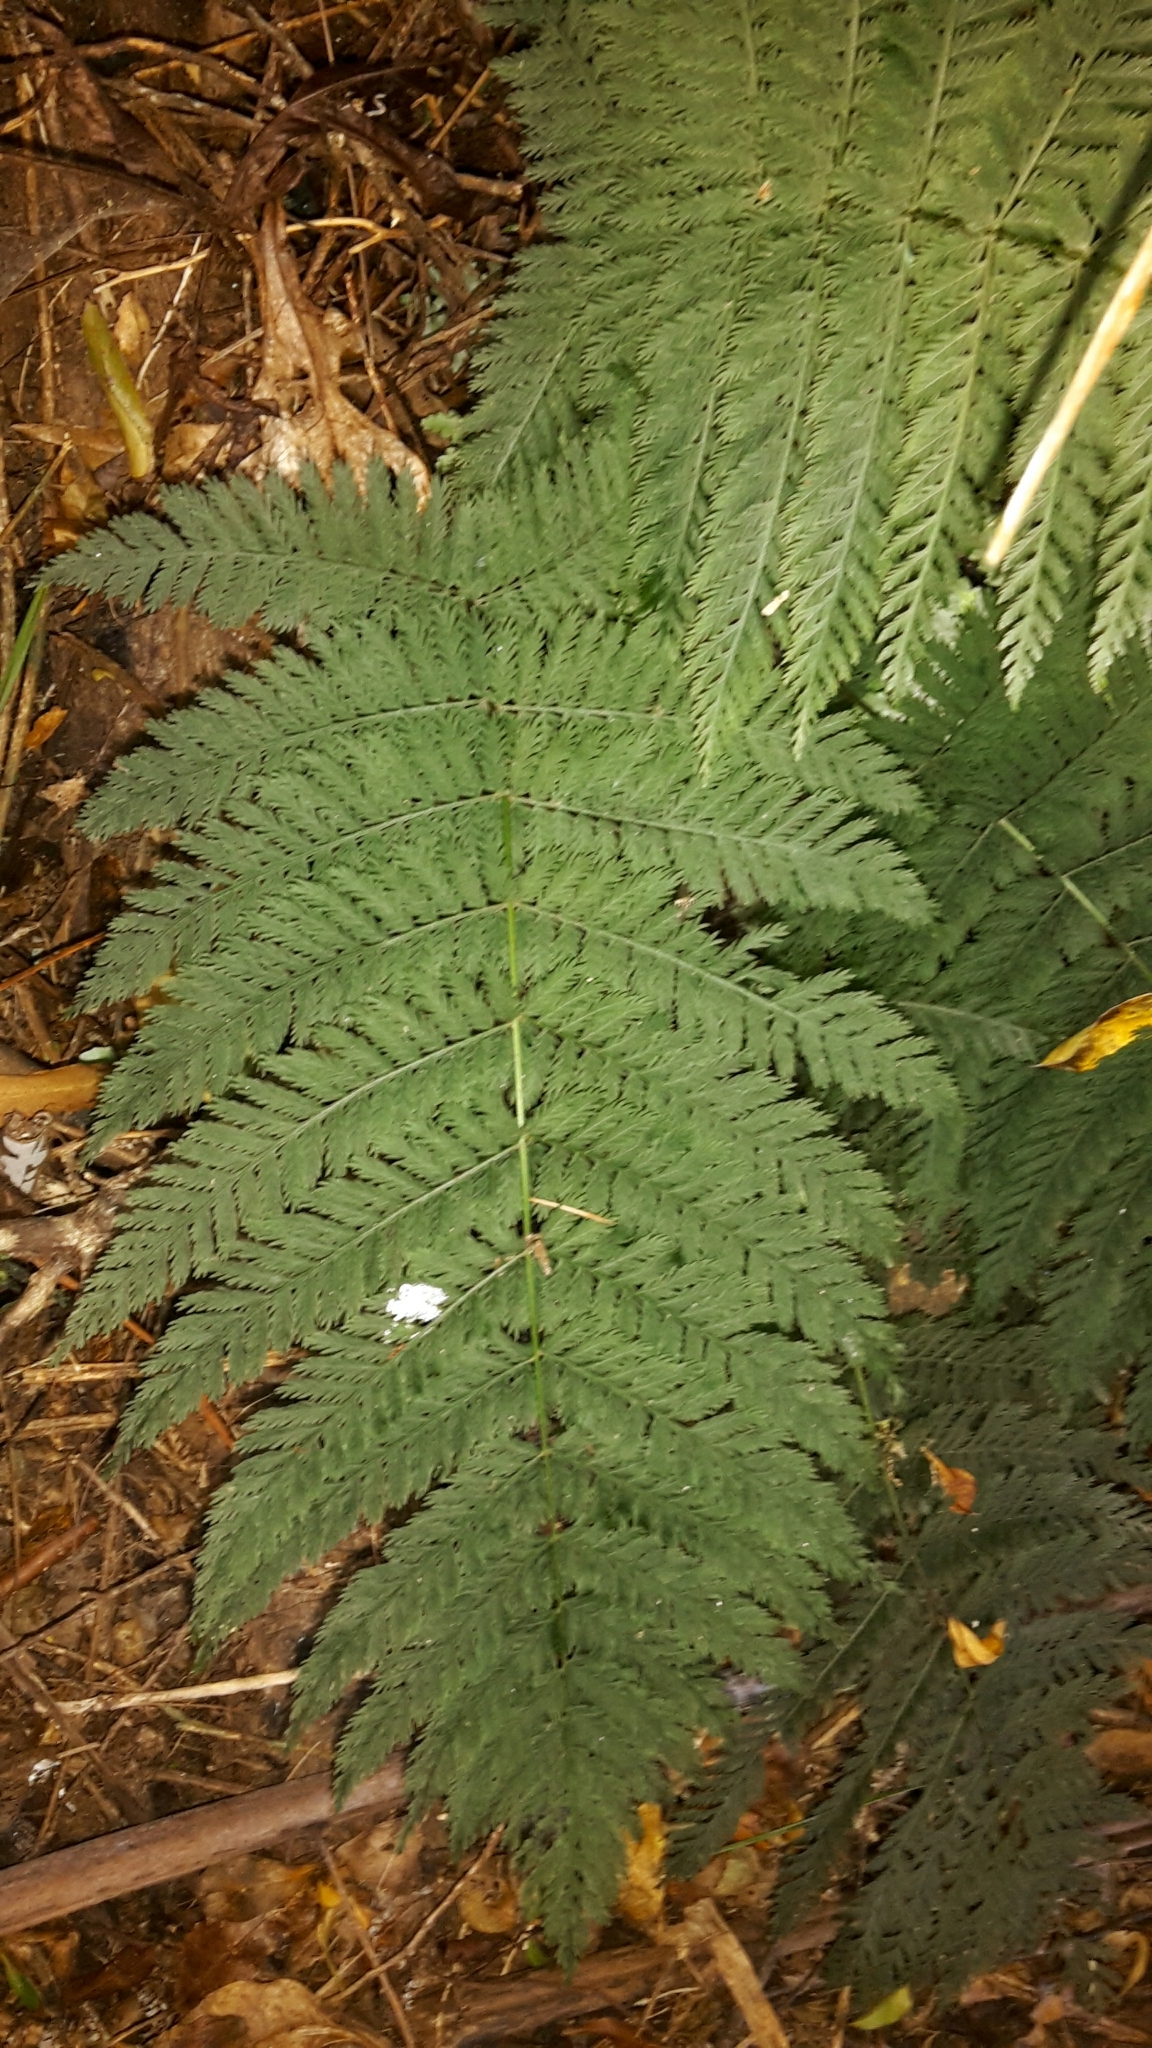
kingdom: Plantae
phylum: Tracheophyta
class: Polypodiopsida
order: Osmundales
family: Osmundaceae
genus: Leptopteris
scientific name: Leptopteris hymenophylloides
